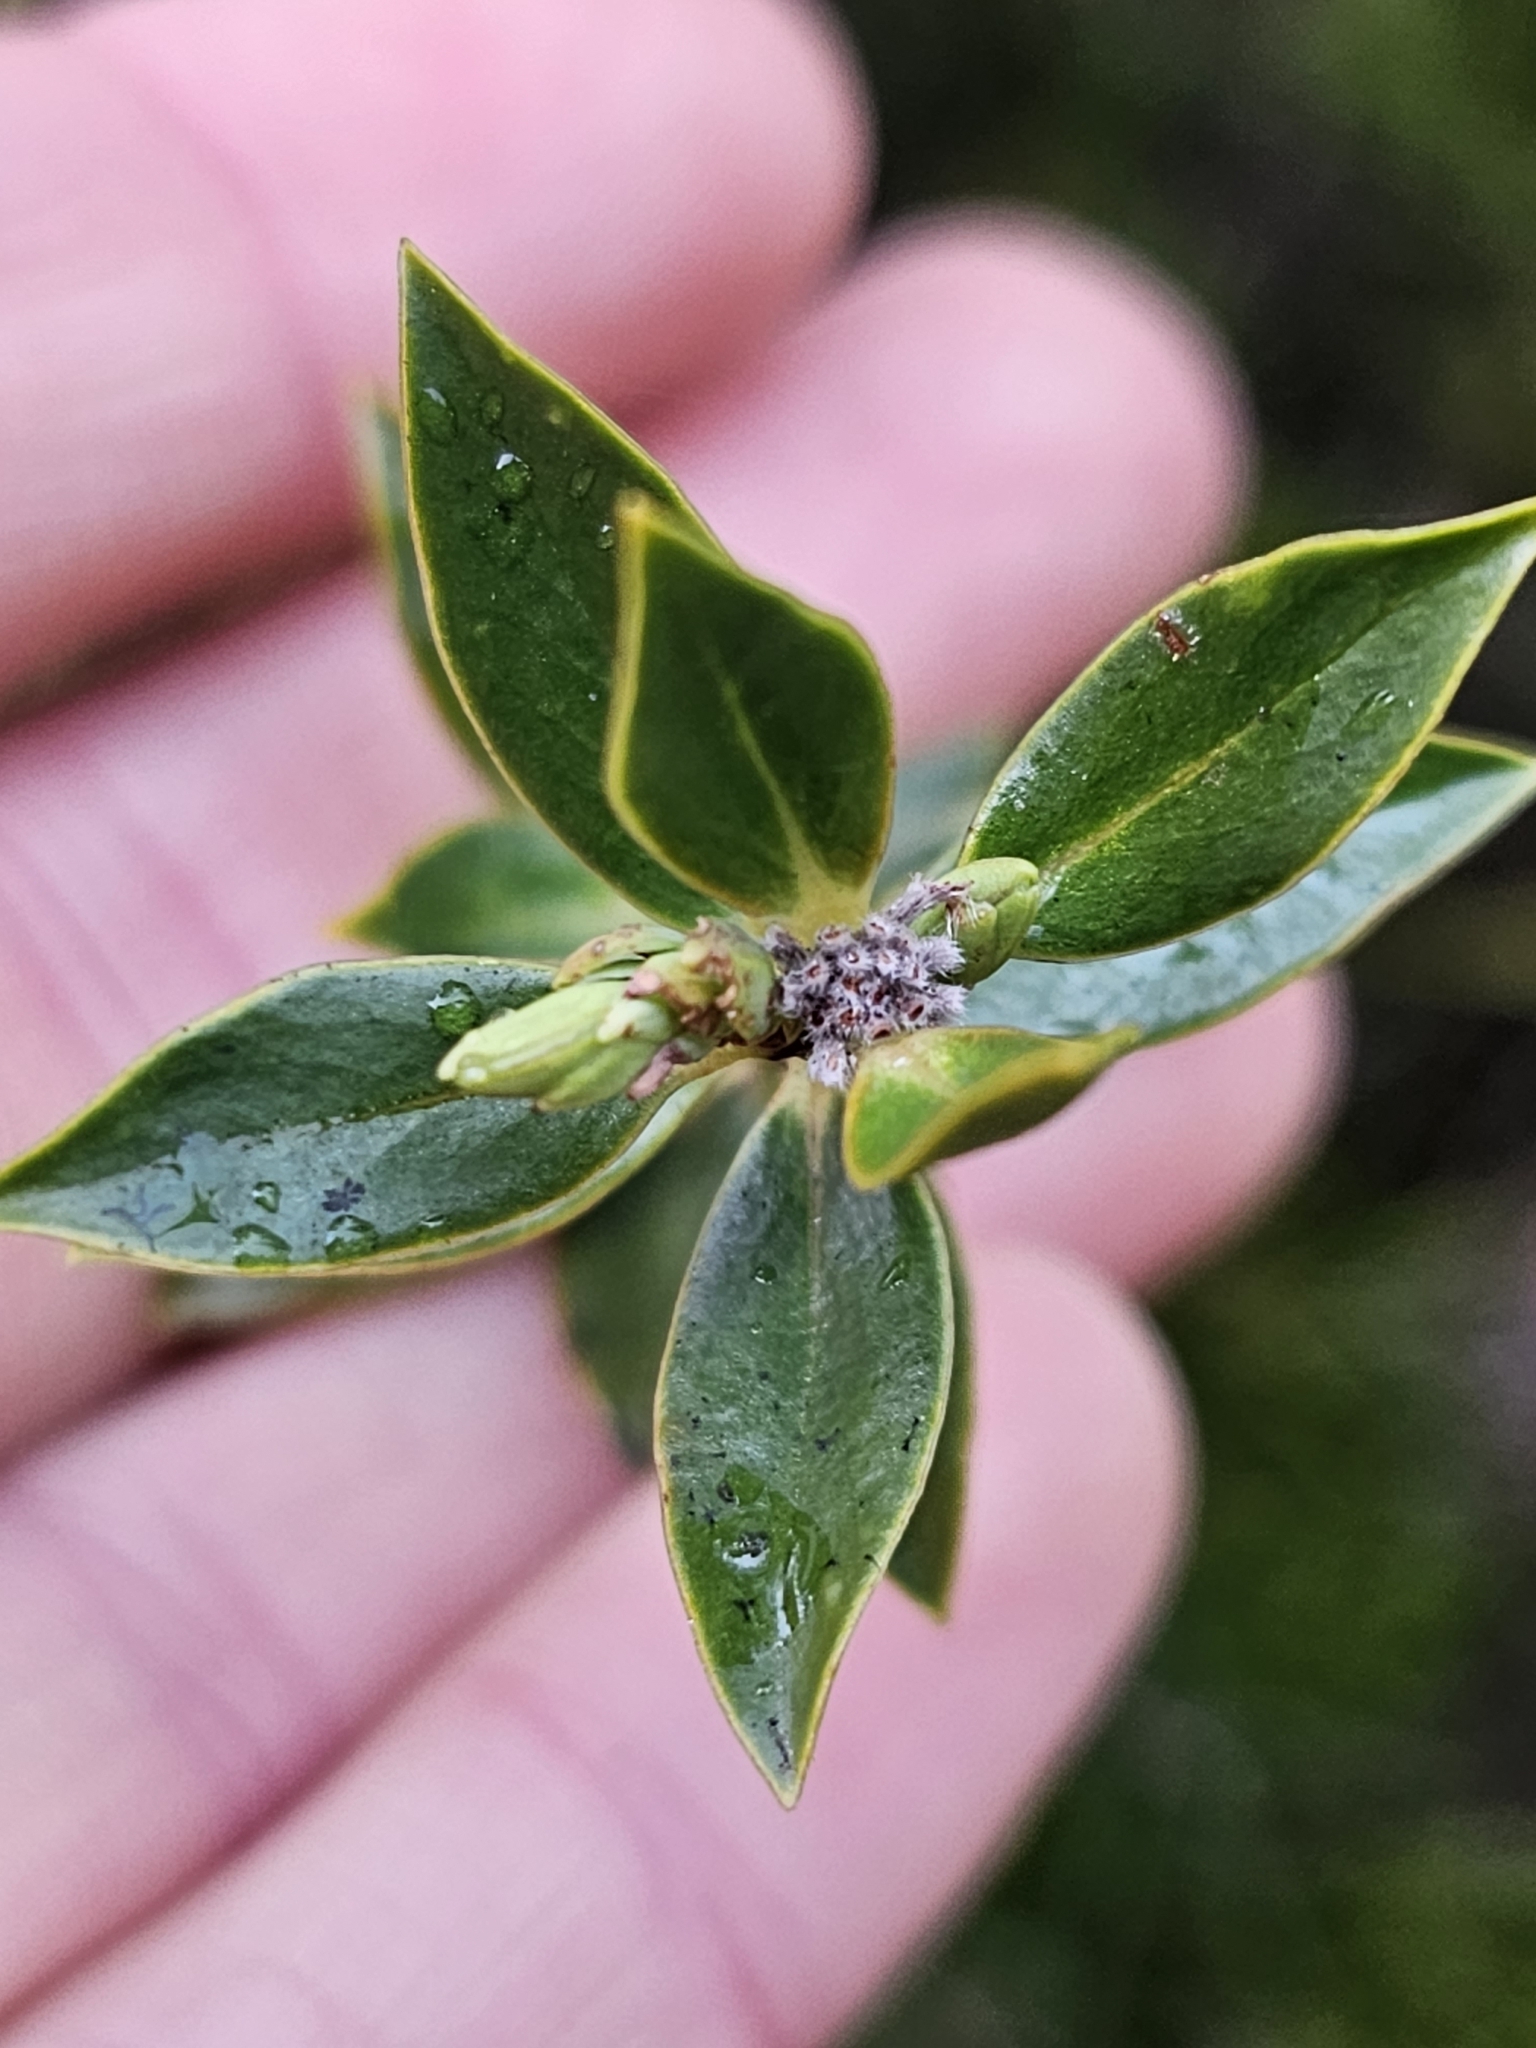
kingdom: Plantae
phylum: Tracheophyta
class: Magnoliopsida
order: Malvales
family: Thymelaeaceae
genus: Pimelea
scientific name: Pimelea longifolia
